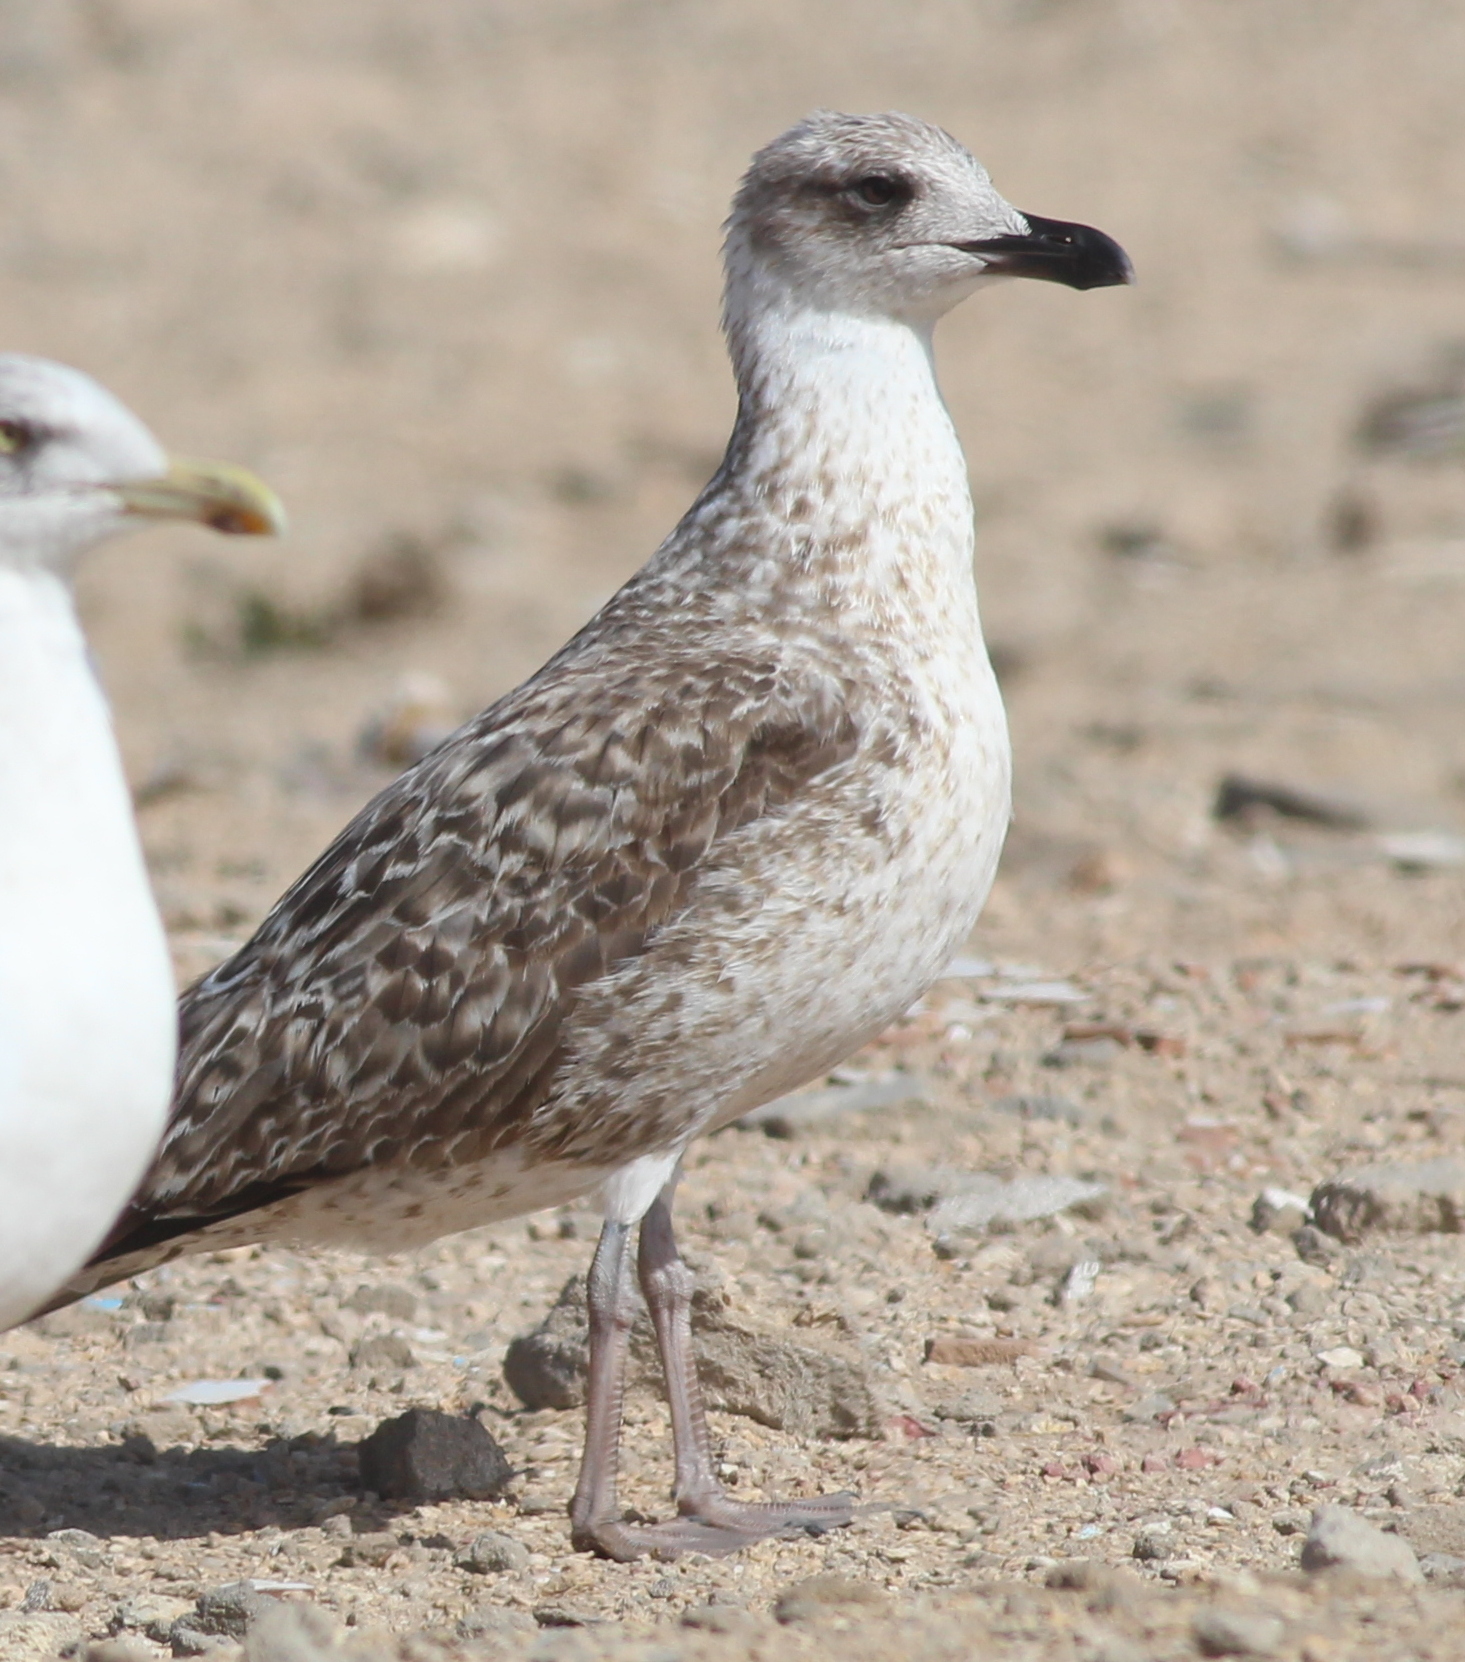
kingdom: Animalia
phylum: Chordata
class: Aves
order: Charadriiformes
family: Laridae
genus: Larus
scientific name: Larus fuscus
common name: Lesser black-backed gull
